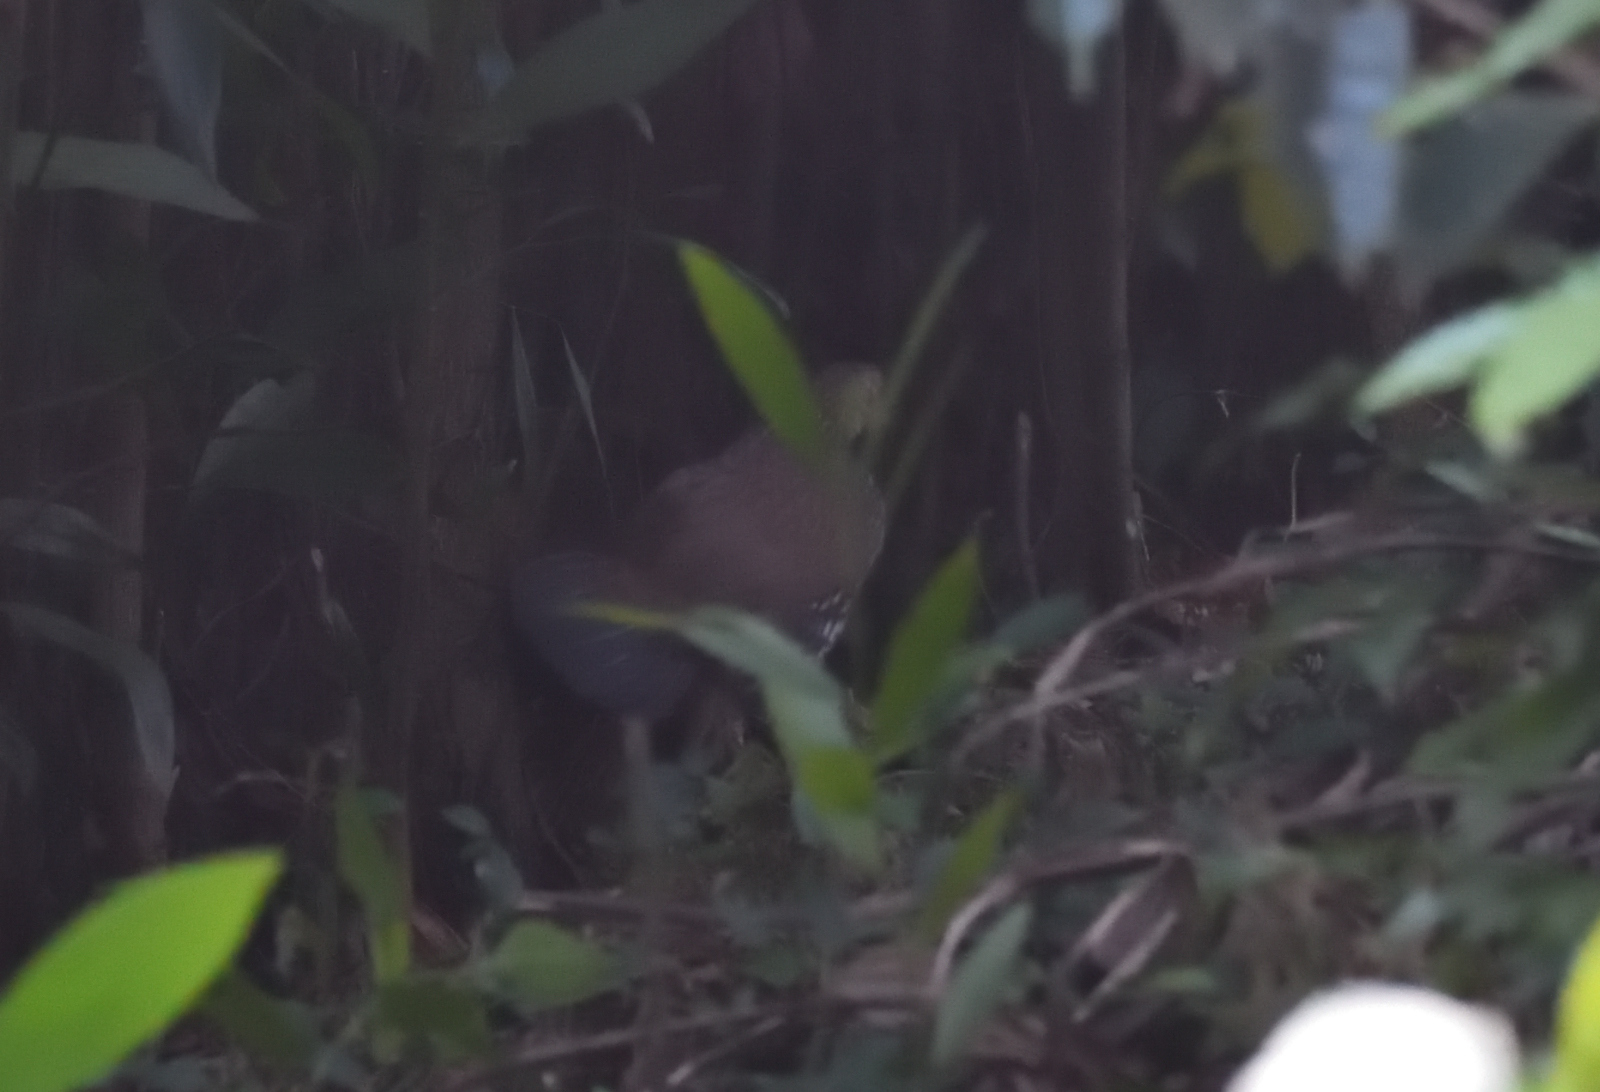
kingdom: Animalia
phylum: Chordata
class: Aves
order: Galliformes
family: Phasianidae
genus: Gallus
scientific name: Gallus gallus
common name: Red junglefowl
